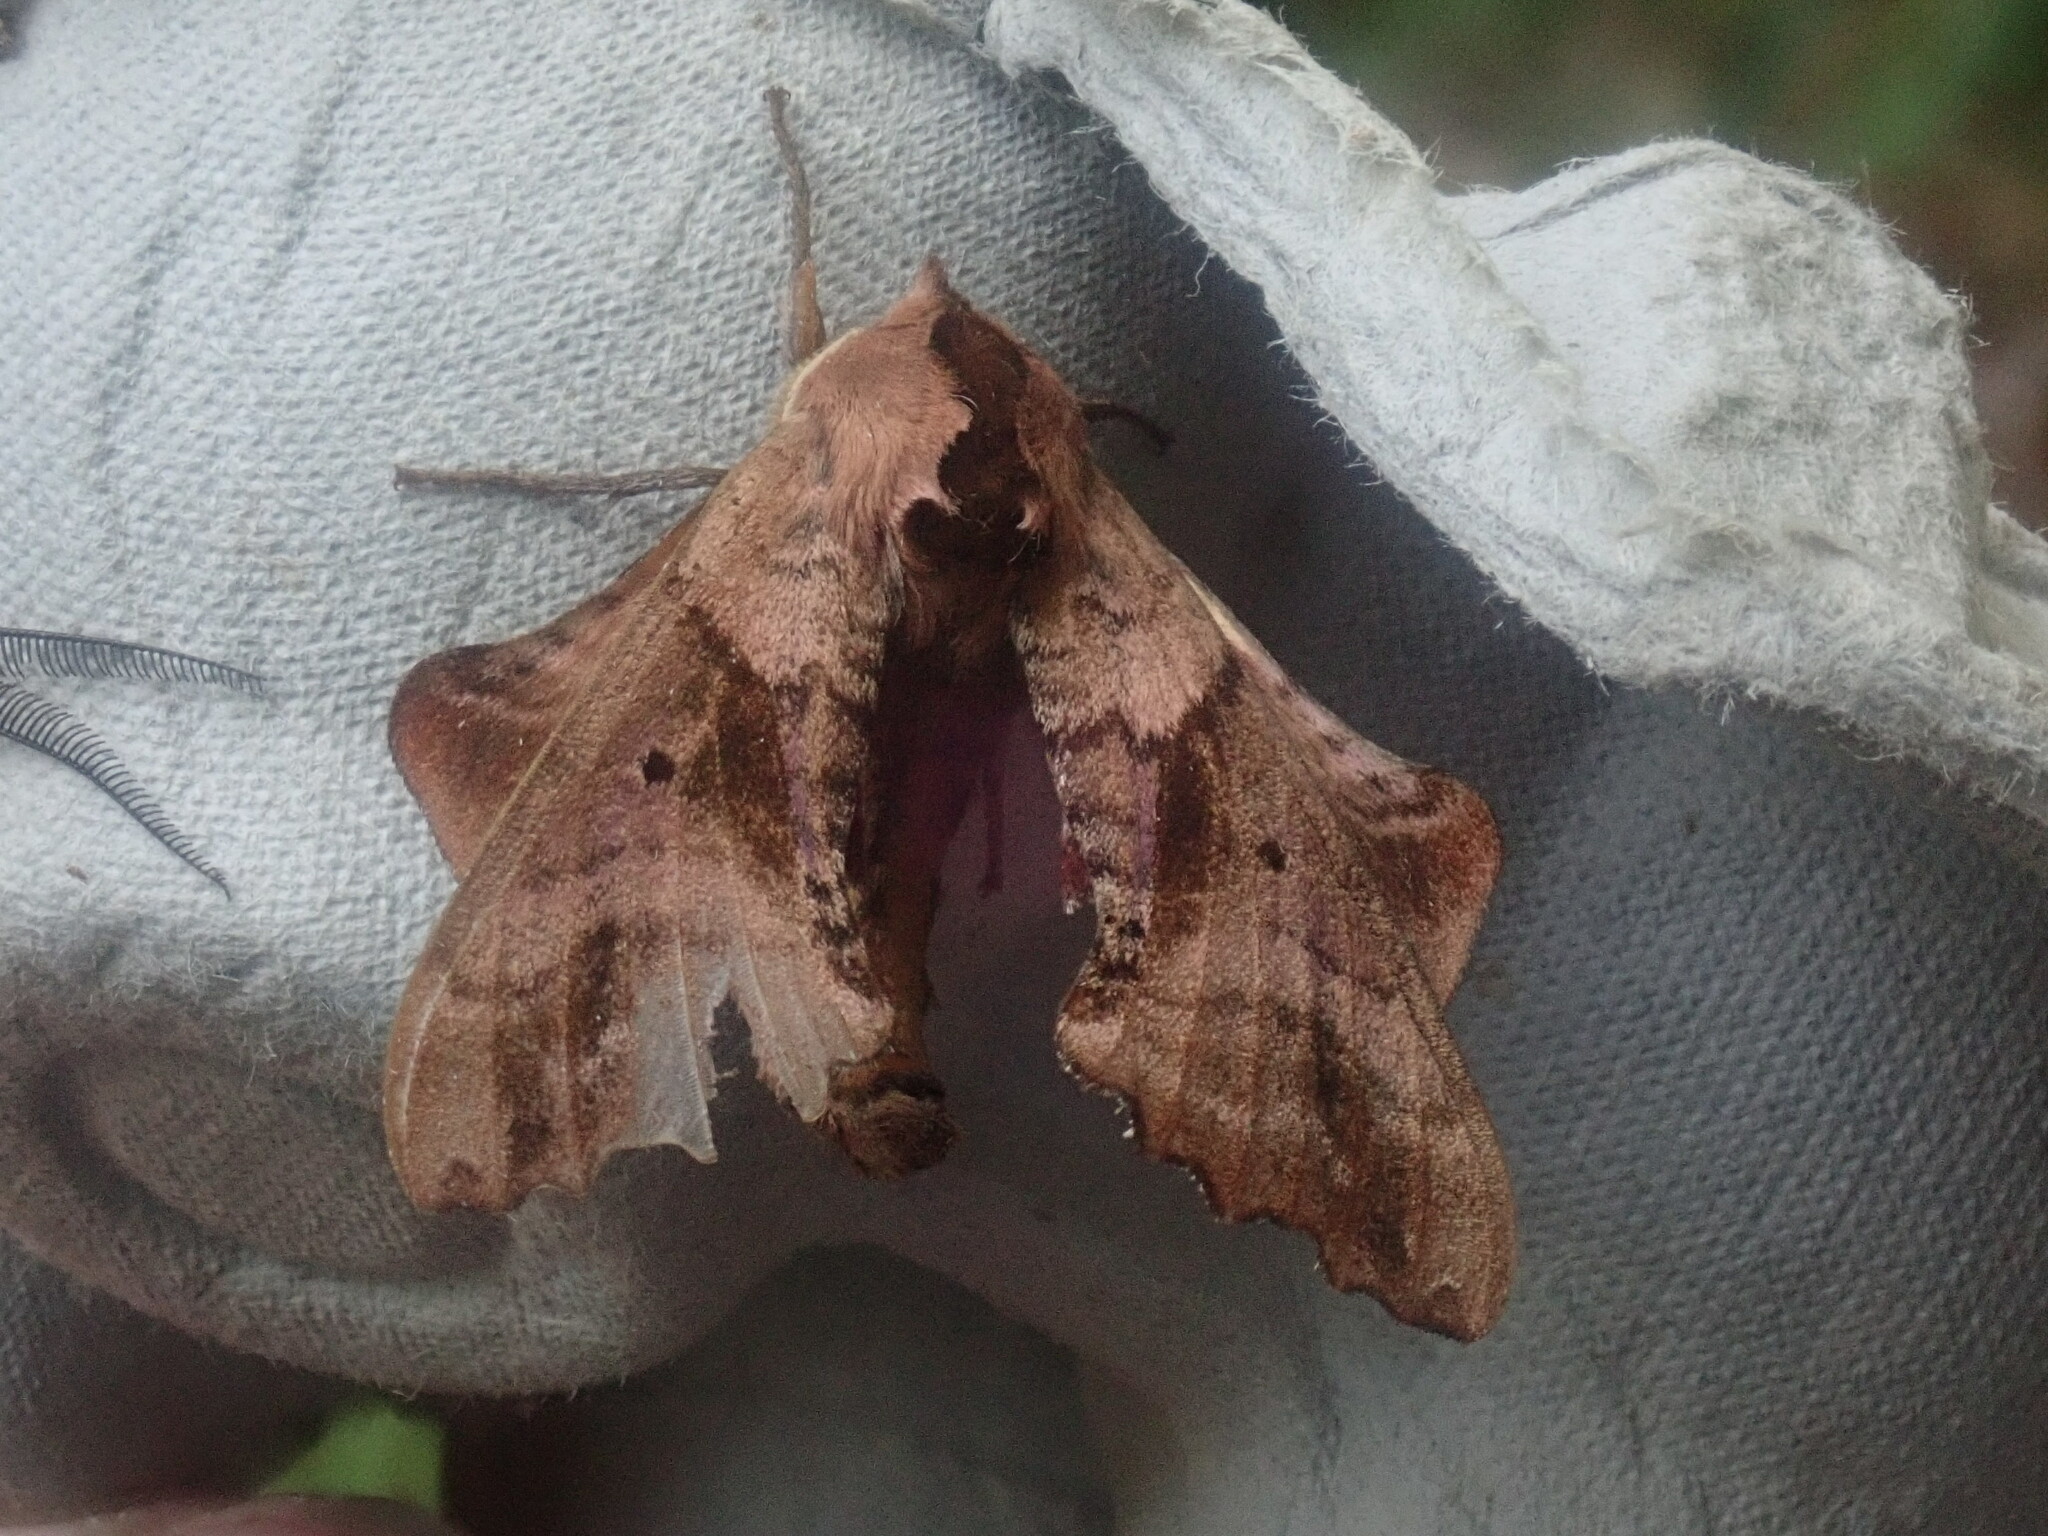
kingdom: Animalia
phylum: Arthropoda
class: Insecta
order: Lepidoptera
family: Sphingidae
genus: Paonias
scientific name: Paonias excaecata
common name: Blind-eyed sphinx
